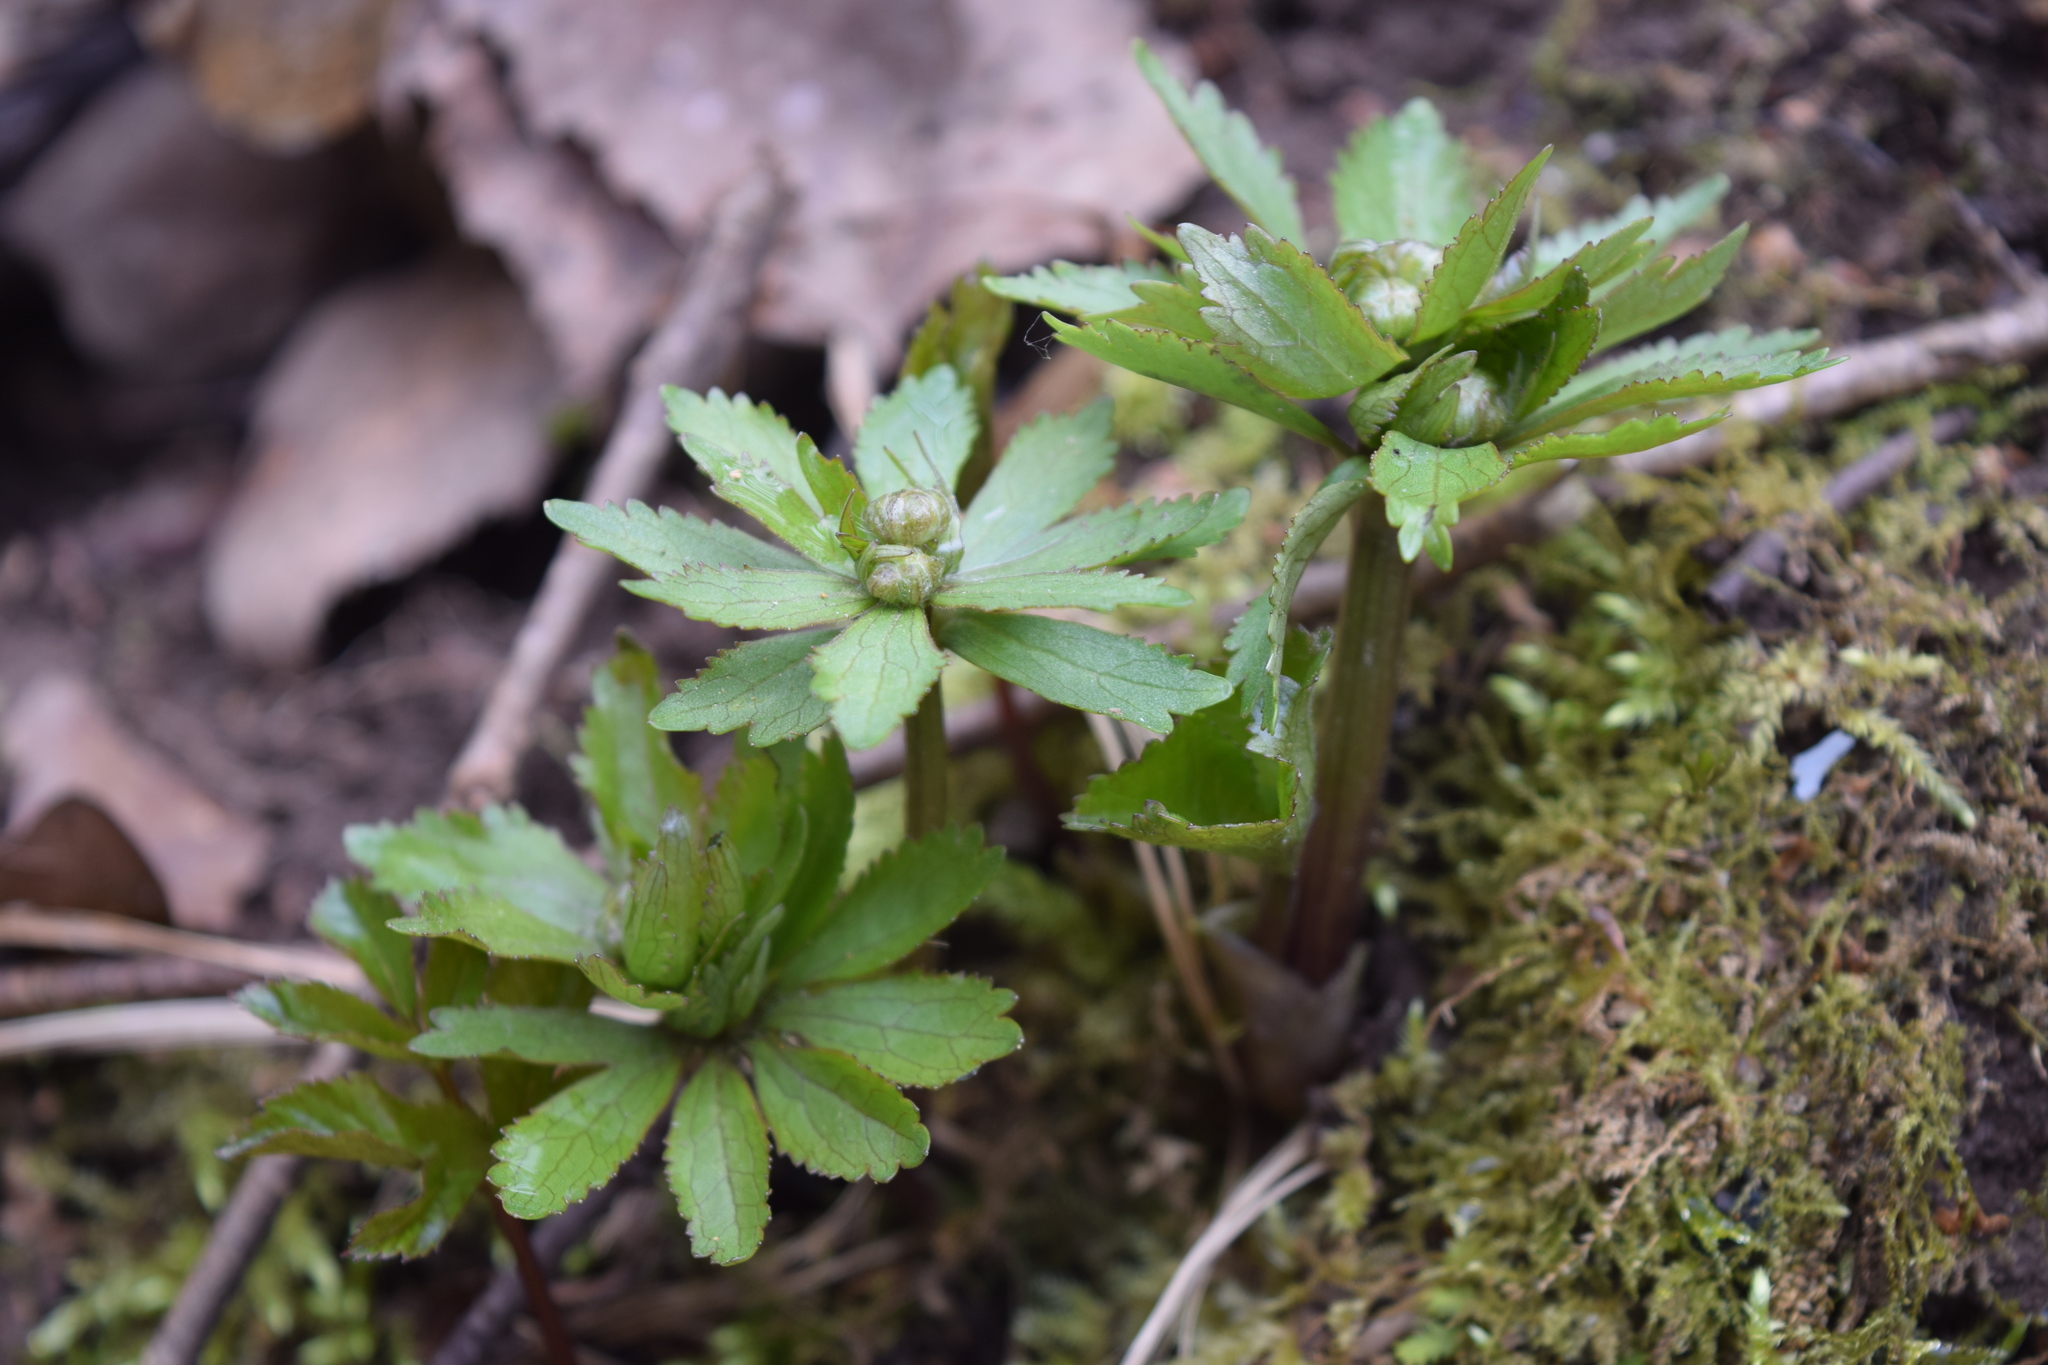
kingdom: Plantae
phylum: Tracheophyta
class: Magnoliopsida
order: Ranunculales
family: Ranunculaceae
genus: Ranunculus
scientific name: Ranunculus cassubicus
